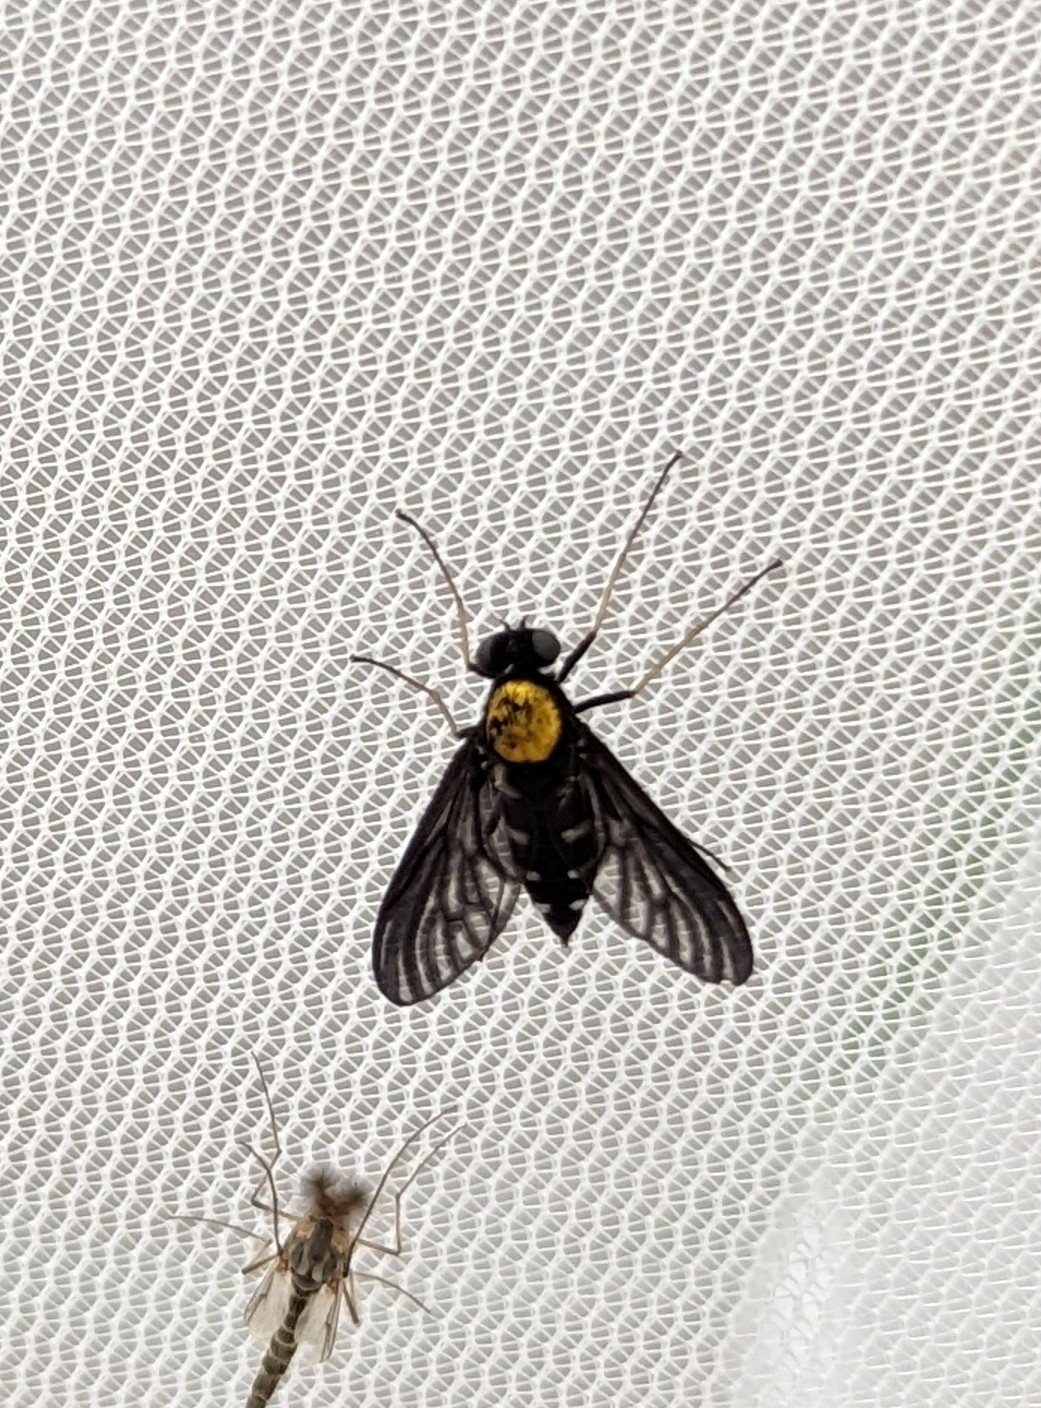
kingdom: Animalia
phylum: Arthropoda
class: Insecta
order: Diptera
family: Rhagionidae
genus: Chrysopilus
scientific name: Chrysopilus thoracicus
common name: Golden-backed snipe fly
